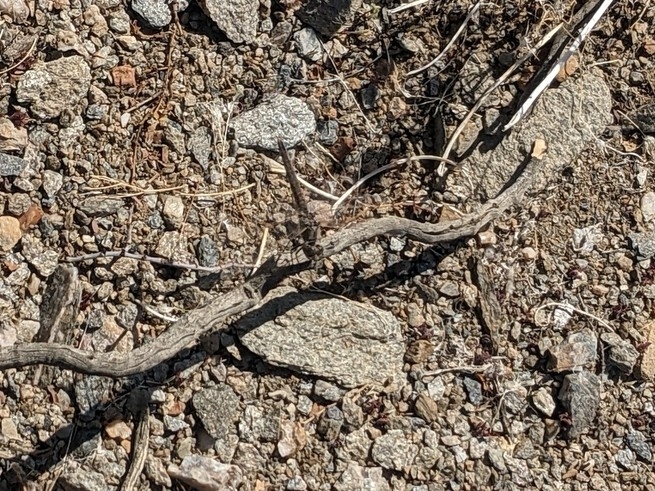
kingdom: Animalia
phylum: Arthropoda
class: Insecta
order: Odonata
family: Libellulidae
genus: Sympetrum
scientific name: Sympetrum corruptum
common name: Variegated meadowhawk
